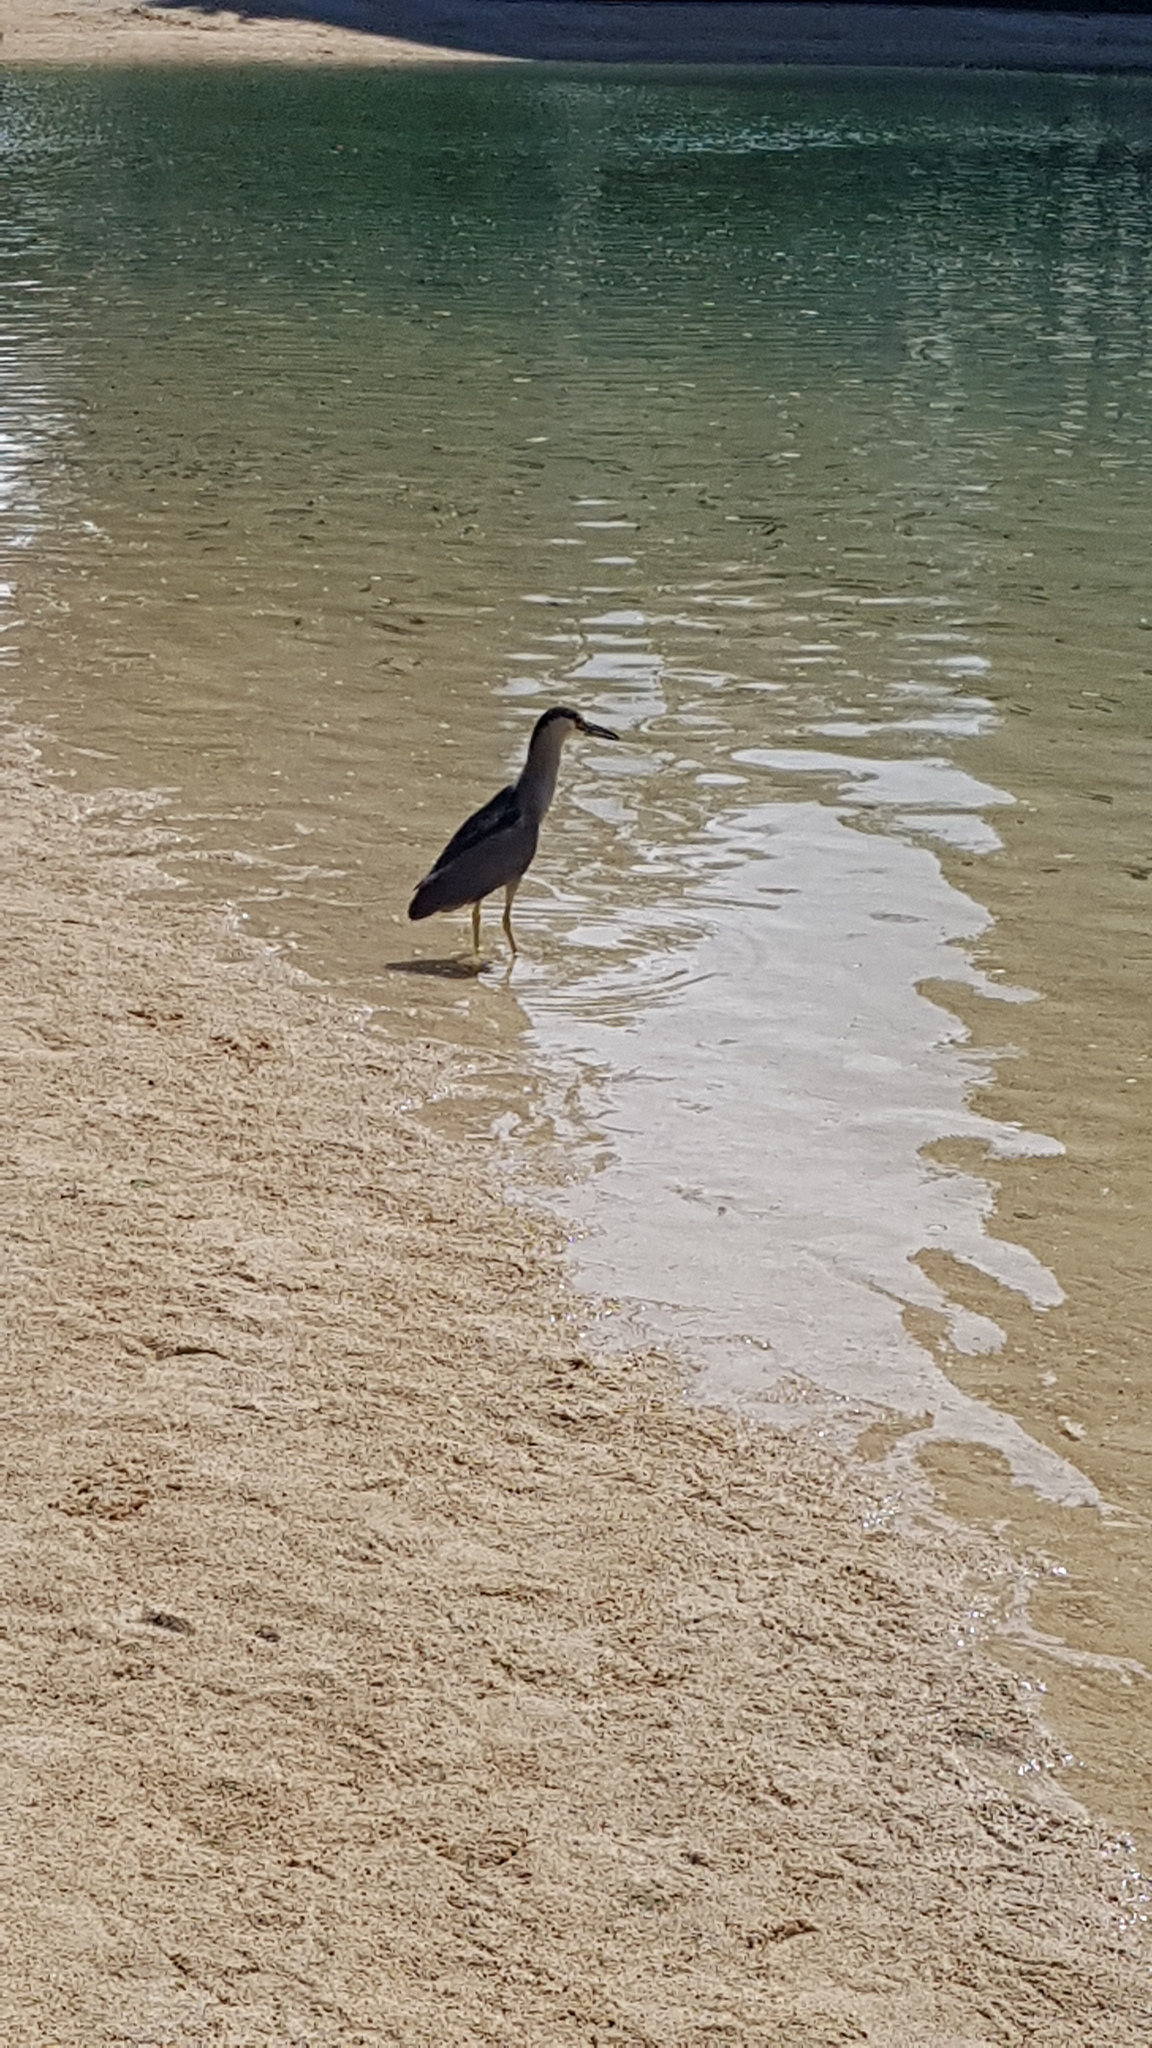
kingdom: Animalia
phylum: Chordata
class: Aves
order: Pelecaniformes
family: Ardeidae
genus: Nycticorax
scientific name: Nycticorax nycticorax
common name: Black-crowned night heron
